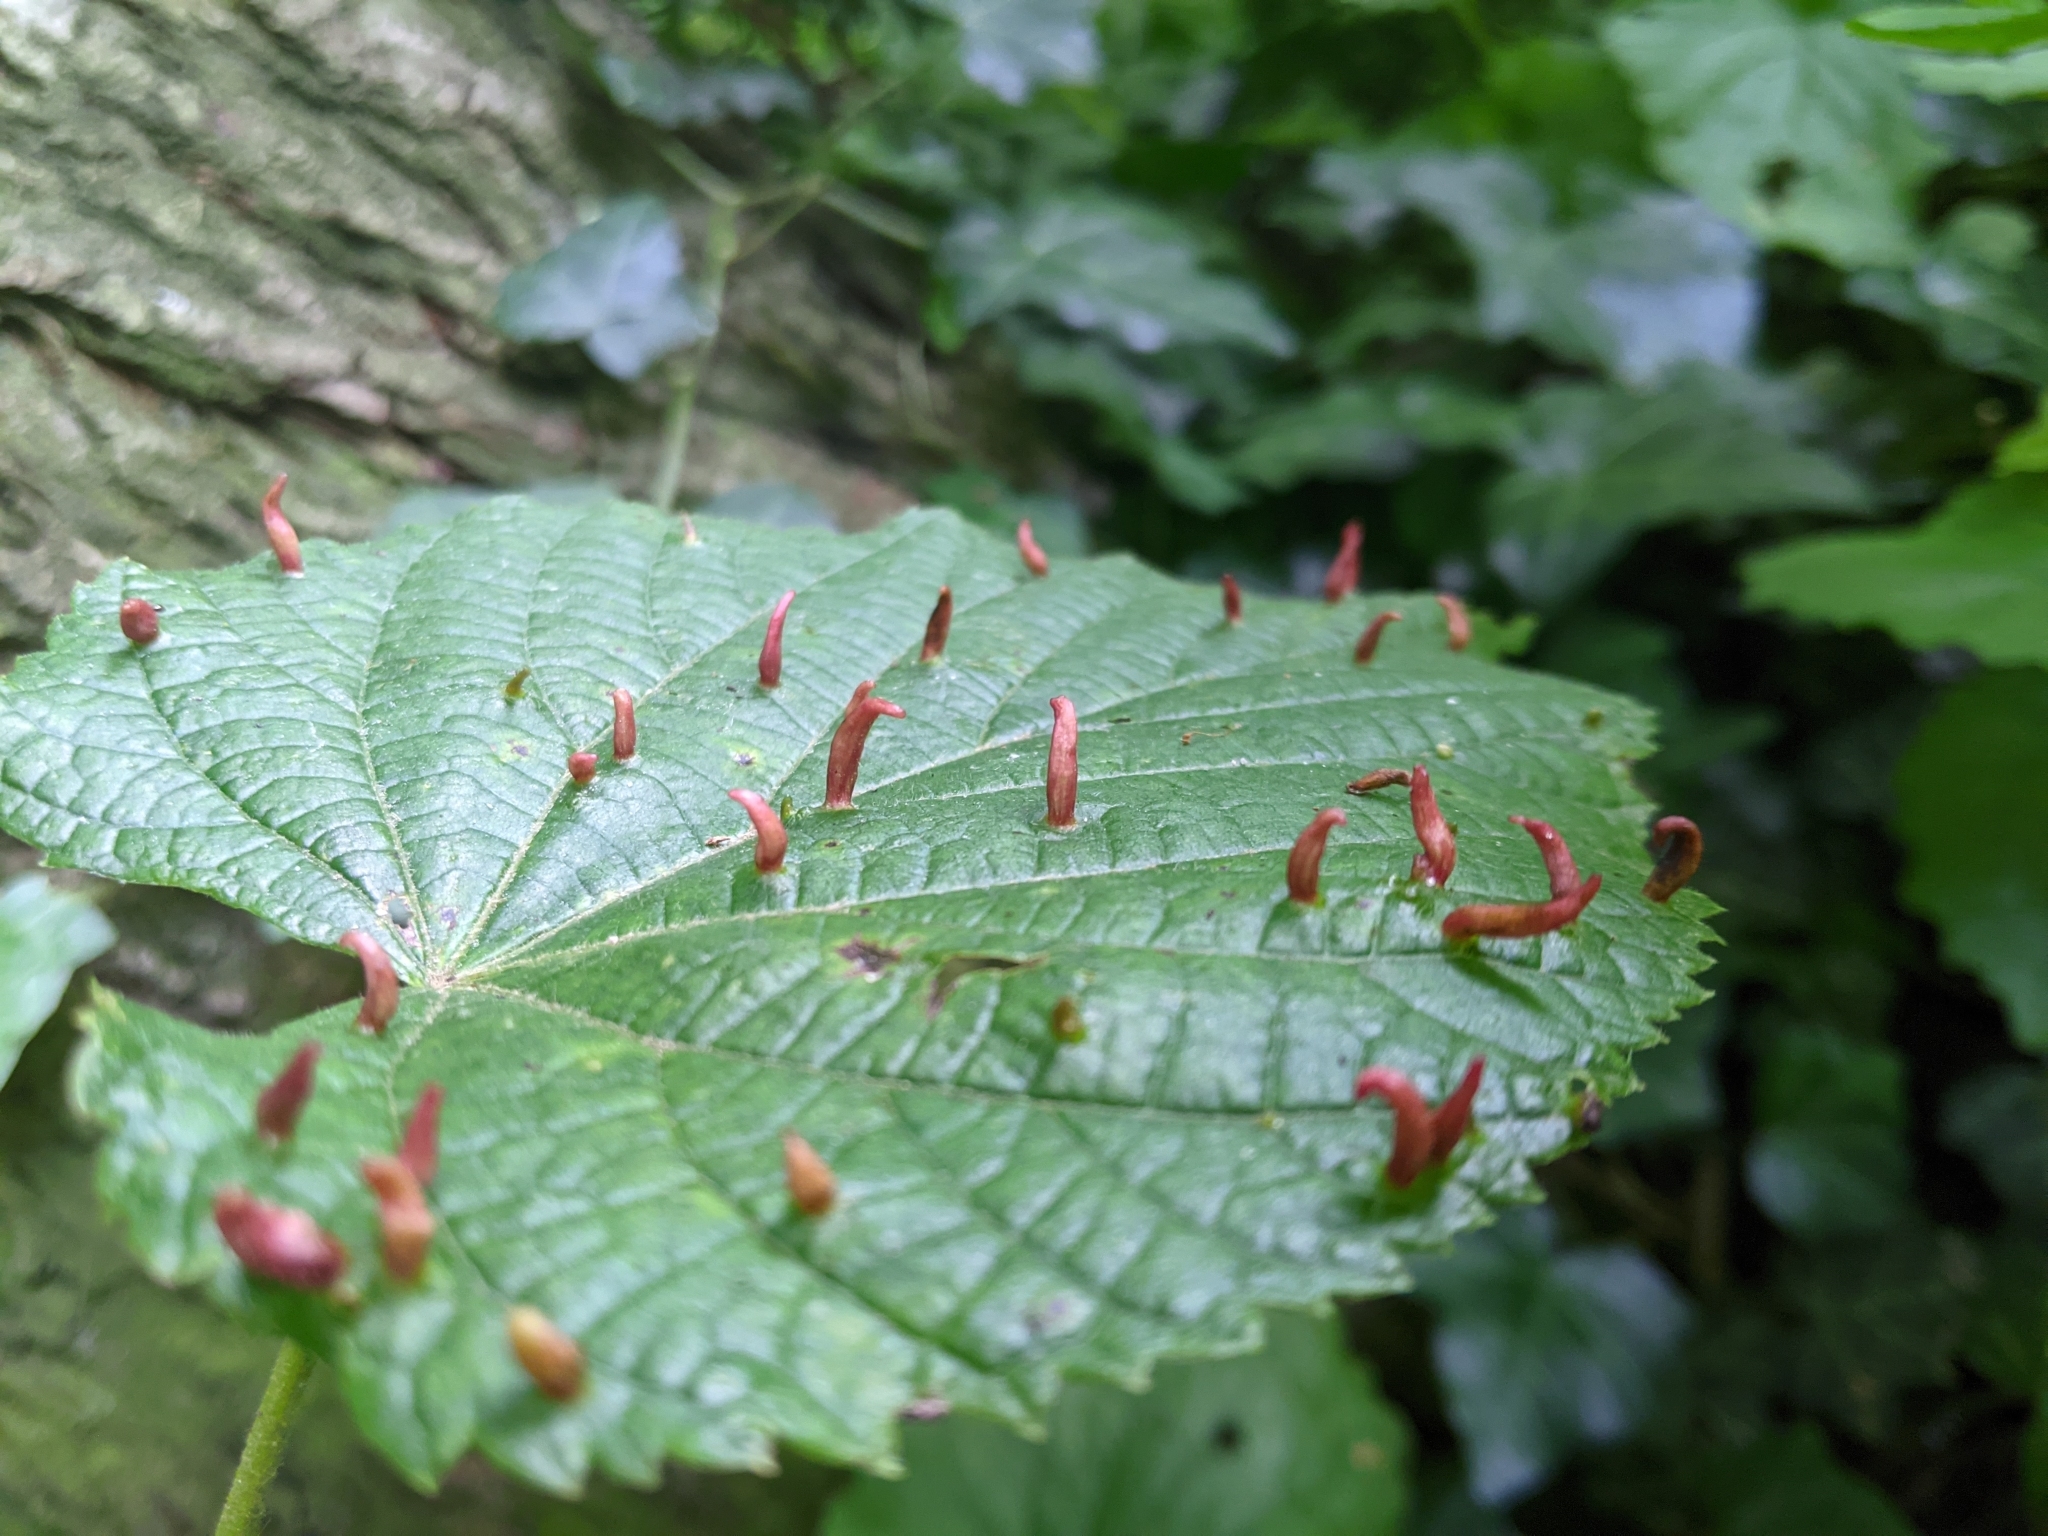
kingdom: Animalia
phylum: Arthropoda
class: Arachnida
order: Trombidiformes
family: Eriophyidae
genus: Eriophyes
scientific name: Eriophyes tiliae
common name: Red nail gall mite
